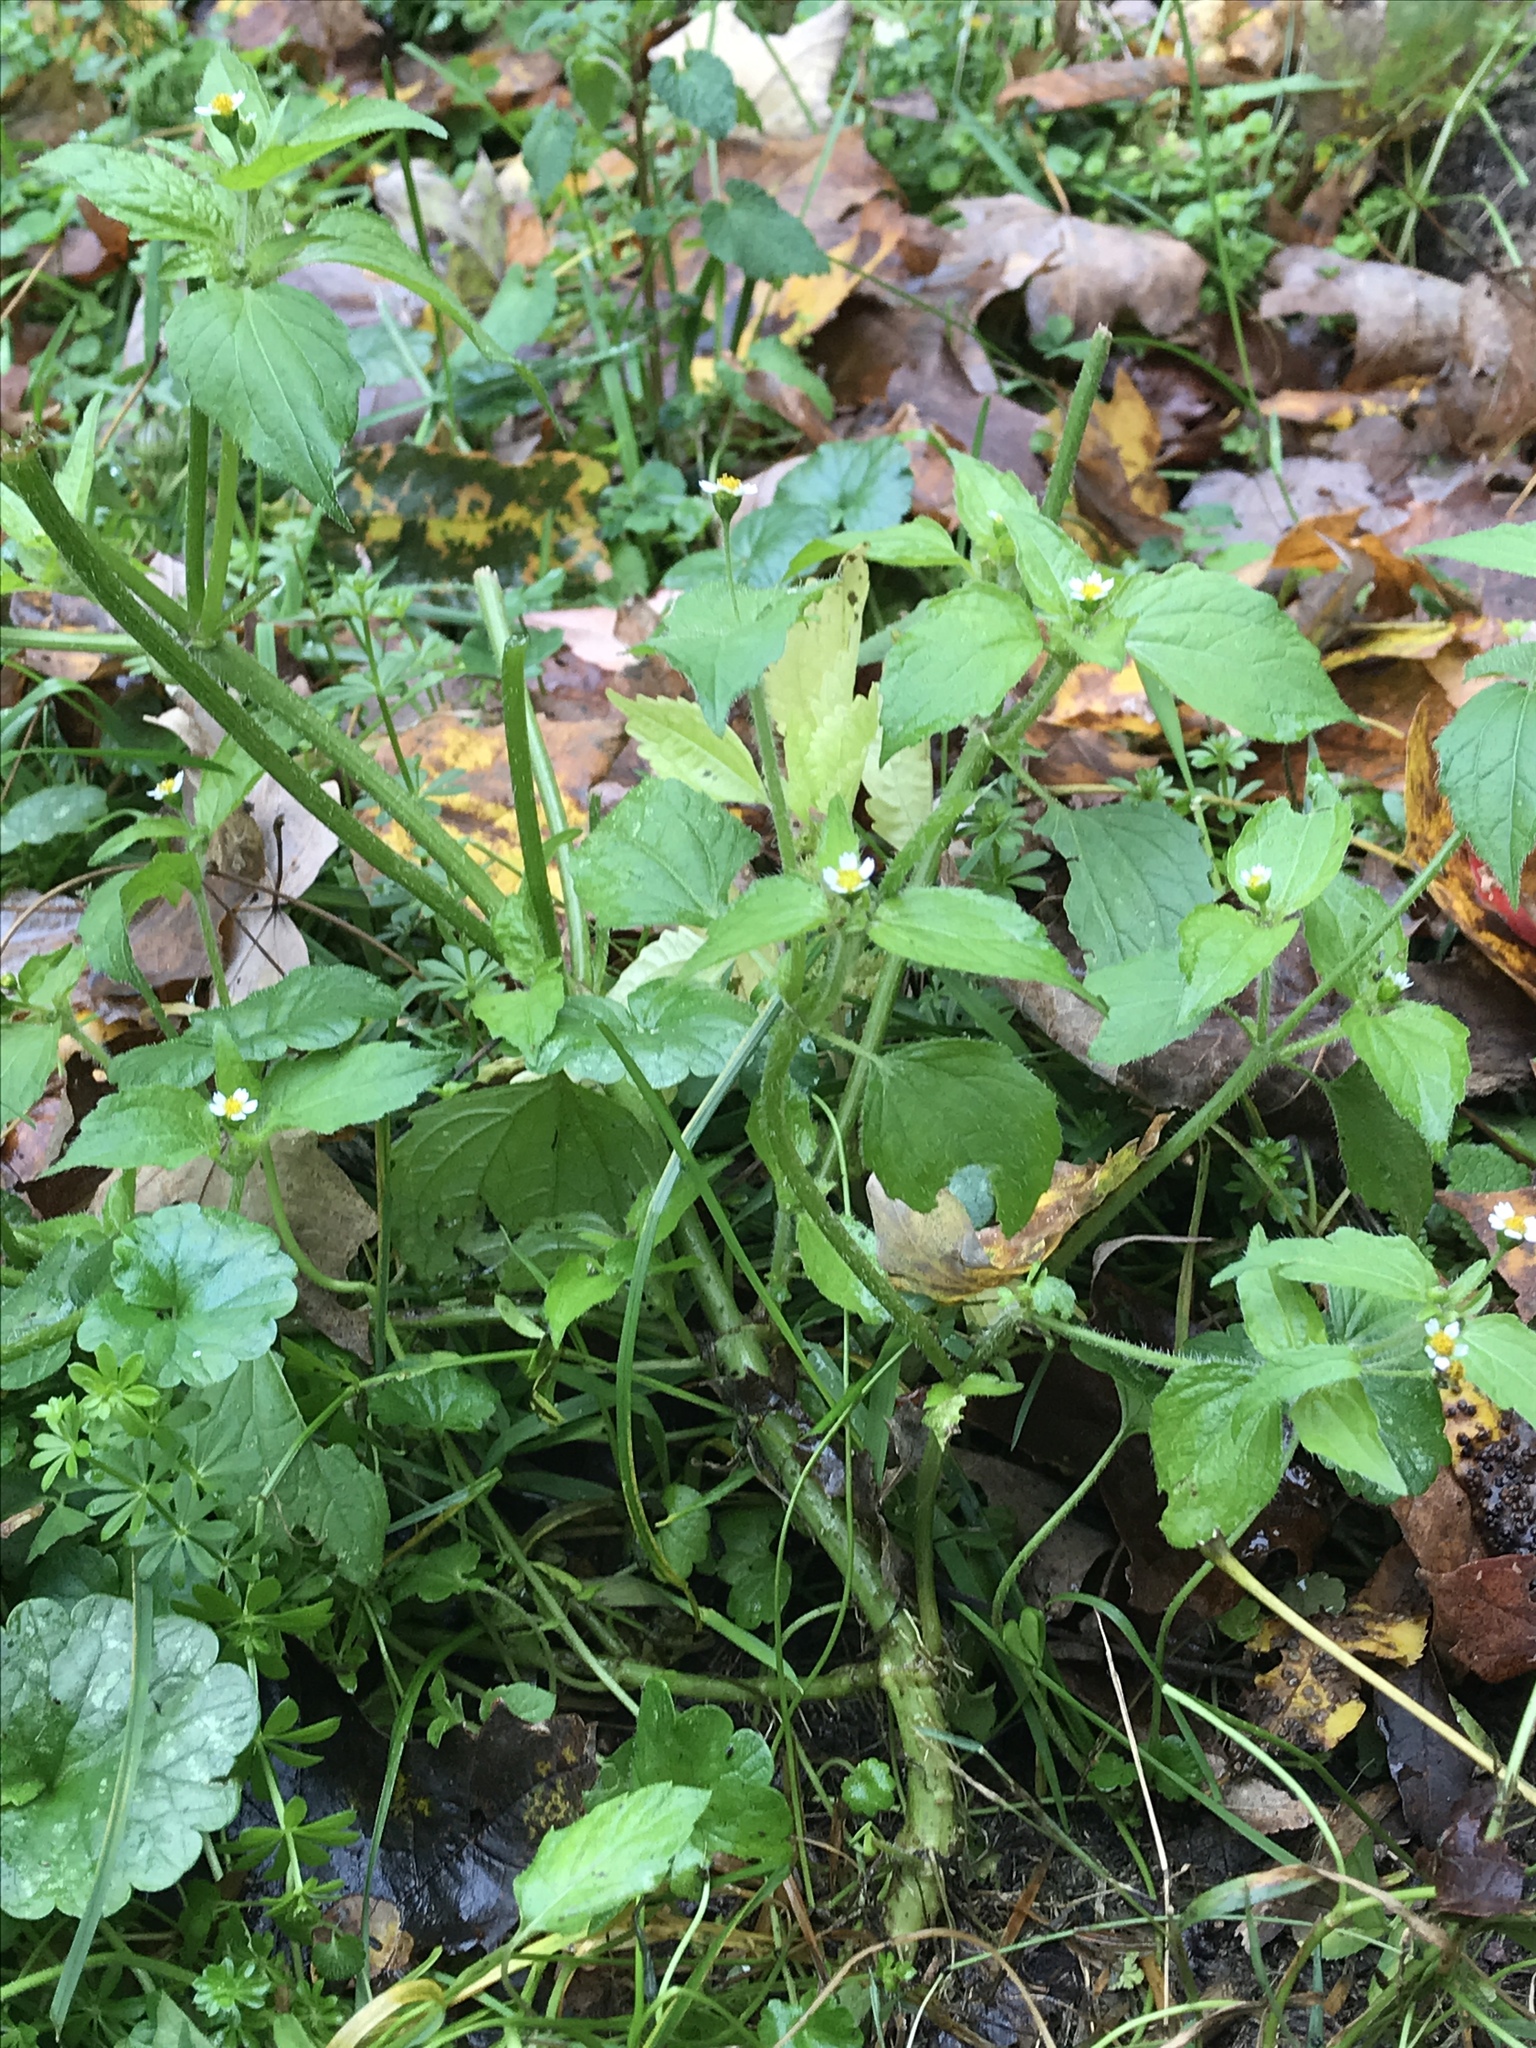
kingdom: Plantae
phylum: Tracheophyta
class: Magnoliopsida
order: Asterales
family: Asteraceae
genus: Galinsoga
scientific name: Galinsoga quadriradiata
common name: Shaggy soldier
